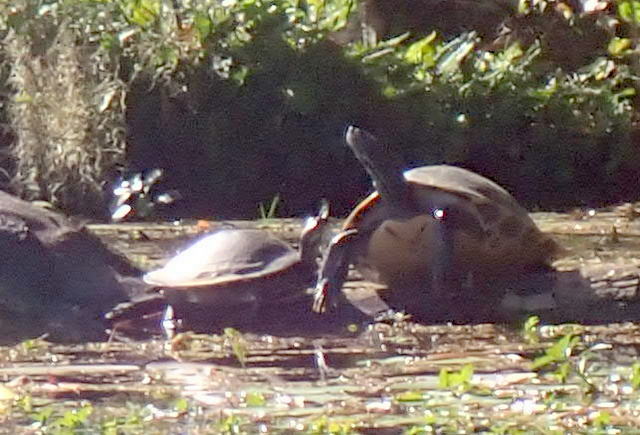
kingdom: Animalia
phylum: Chordata
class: Testudines
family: Emydidae
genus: Pseudemys
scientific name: Pseudemys concinna
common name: Eastern river cooter
